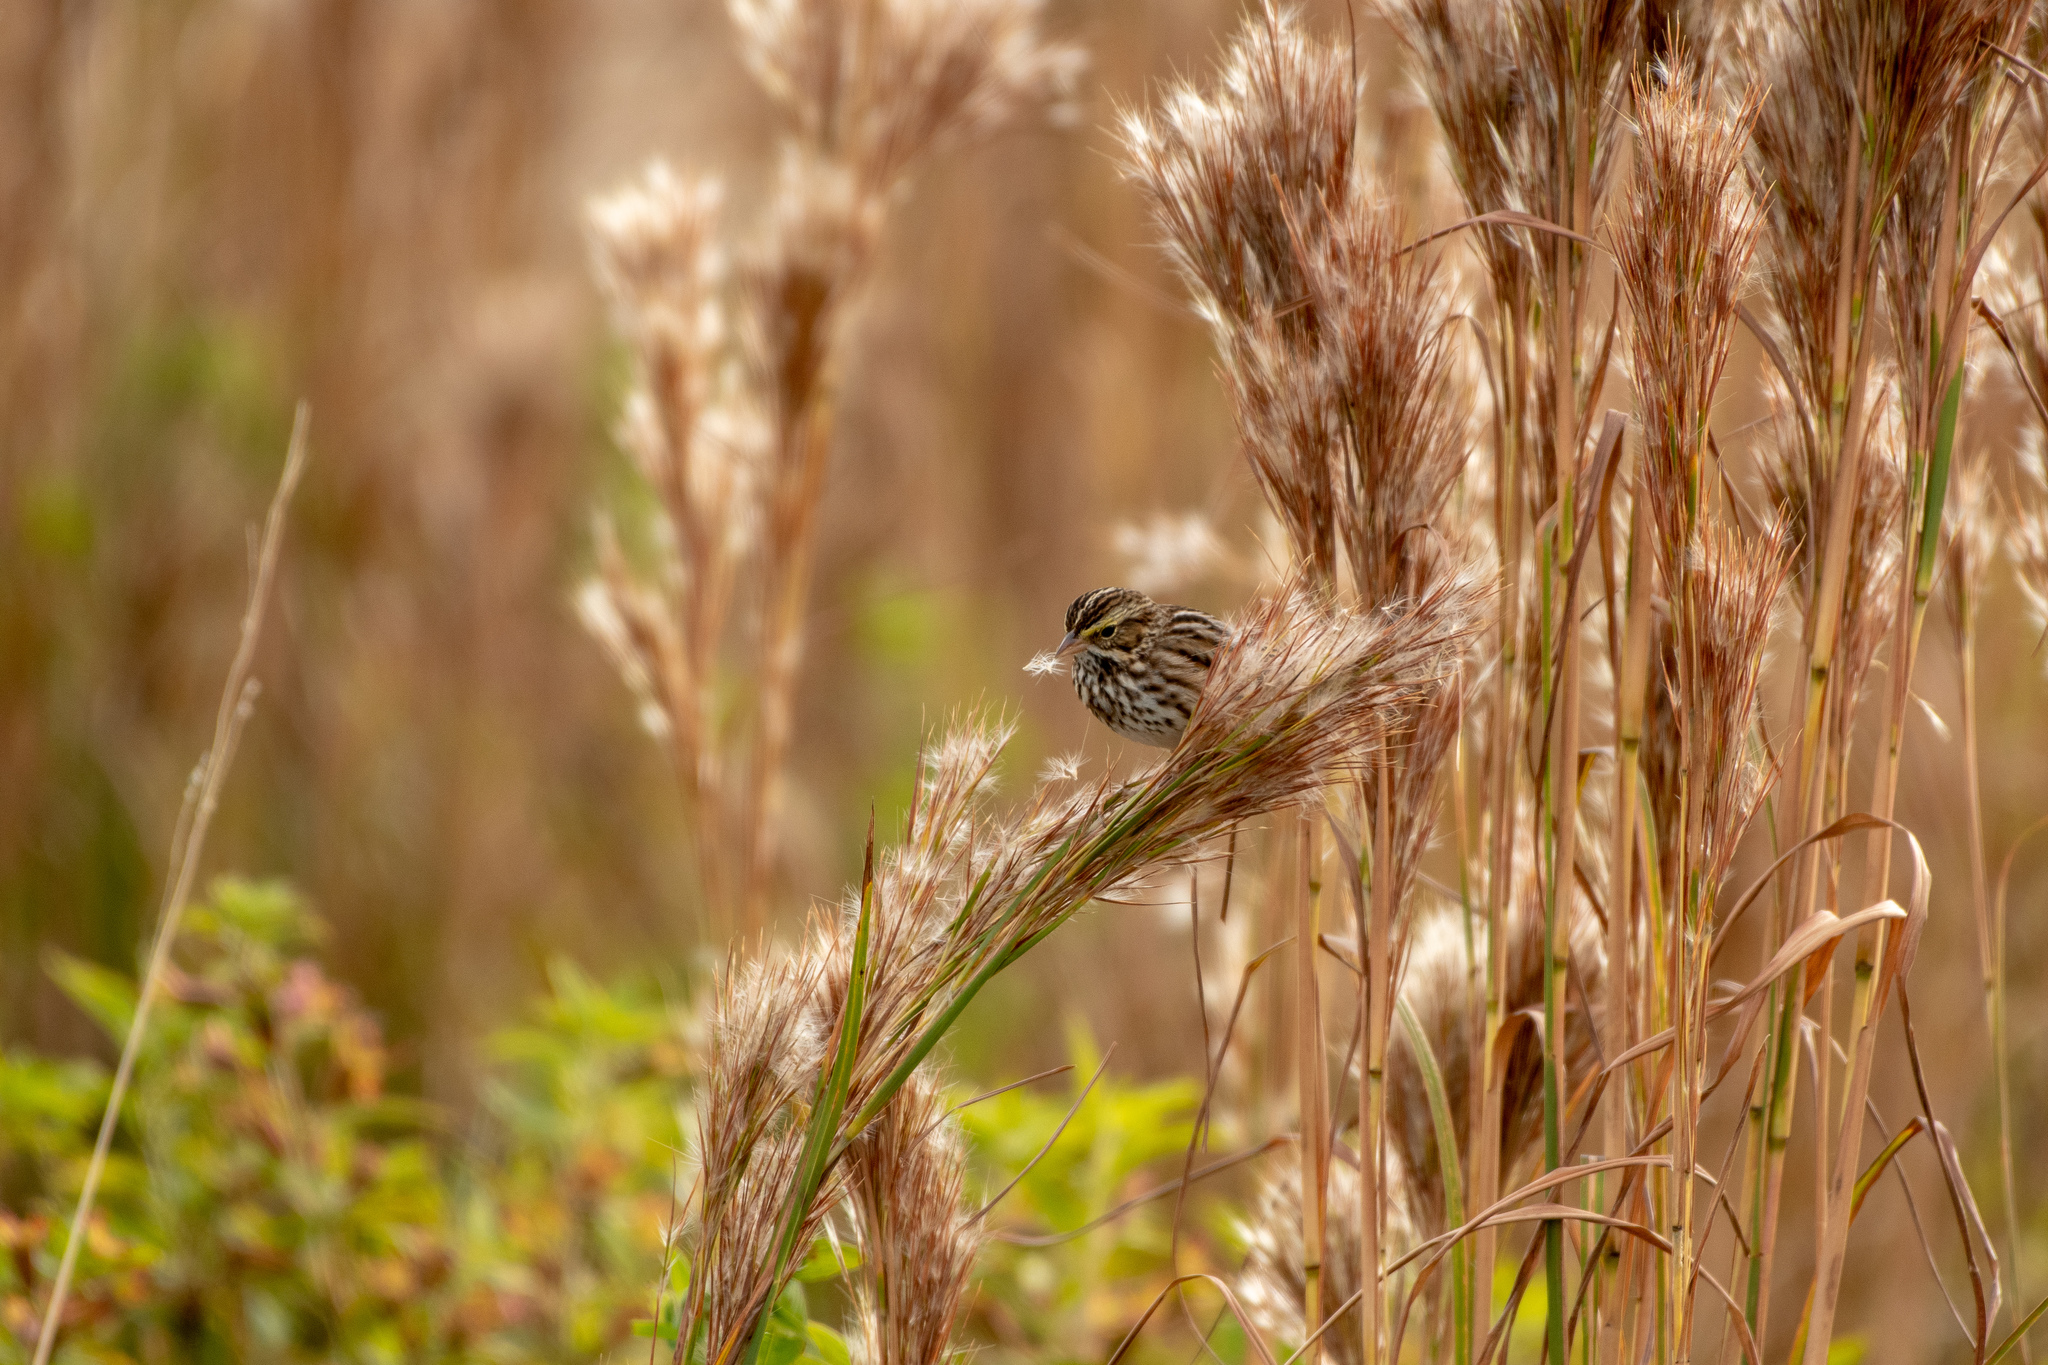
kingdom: Animalia
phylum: Chordata
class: Aves
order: Passeriformes
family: Passerellidae
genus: Passerculus
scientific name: Passerculus sandwichensis
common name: Savannah sparrow
